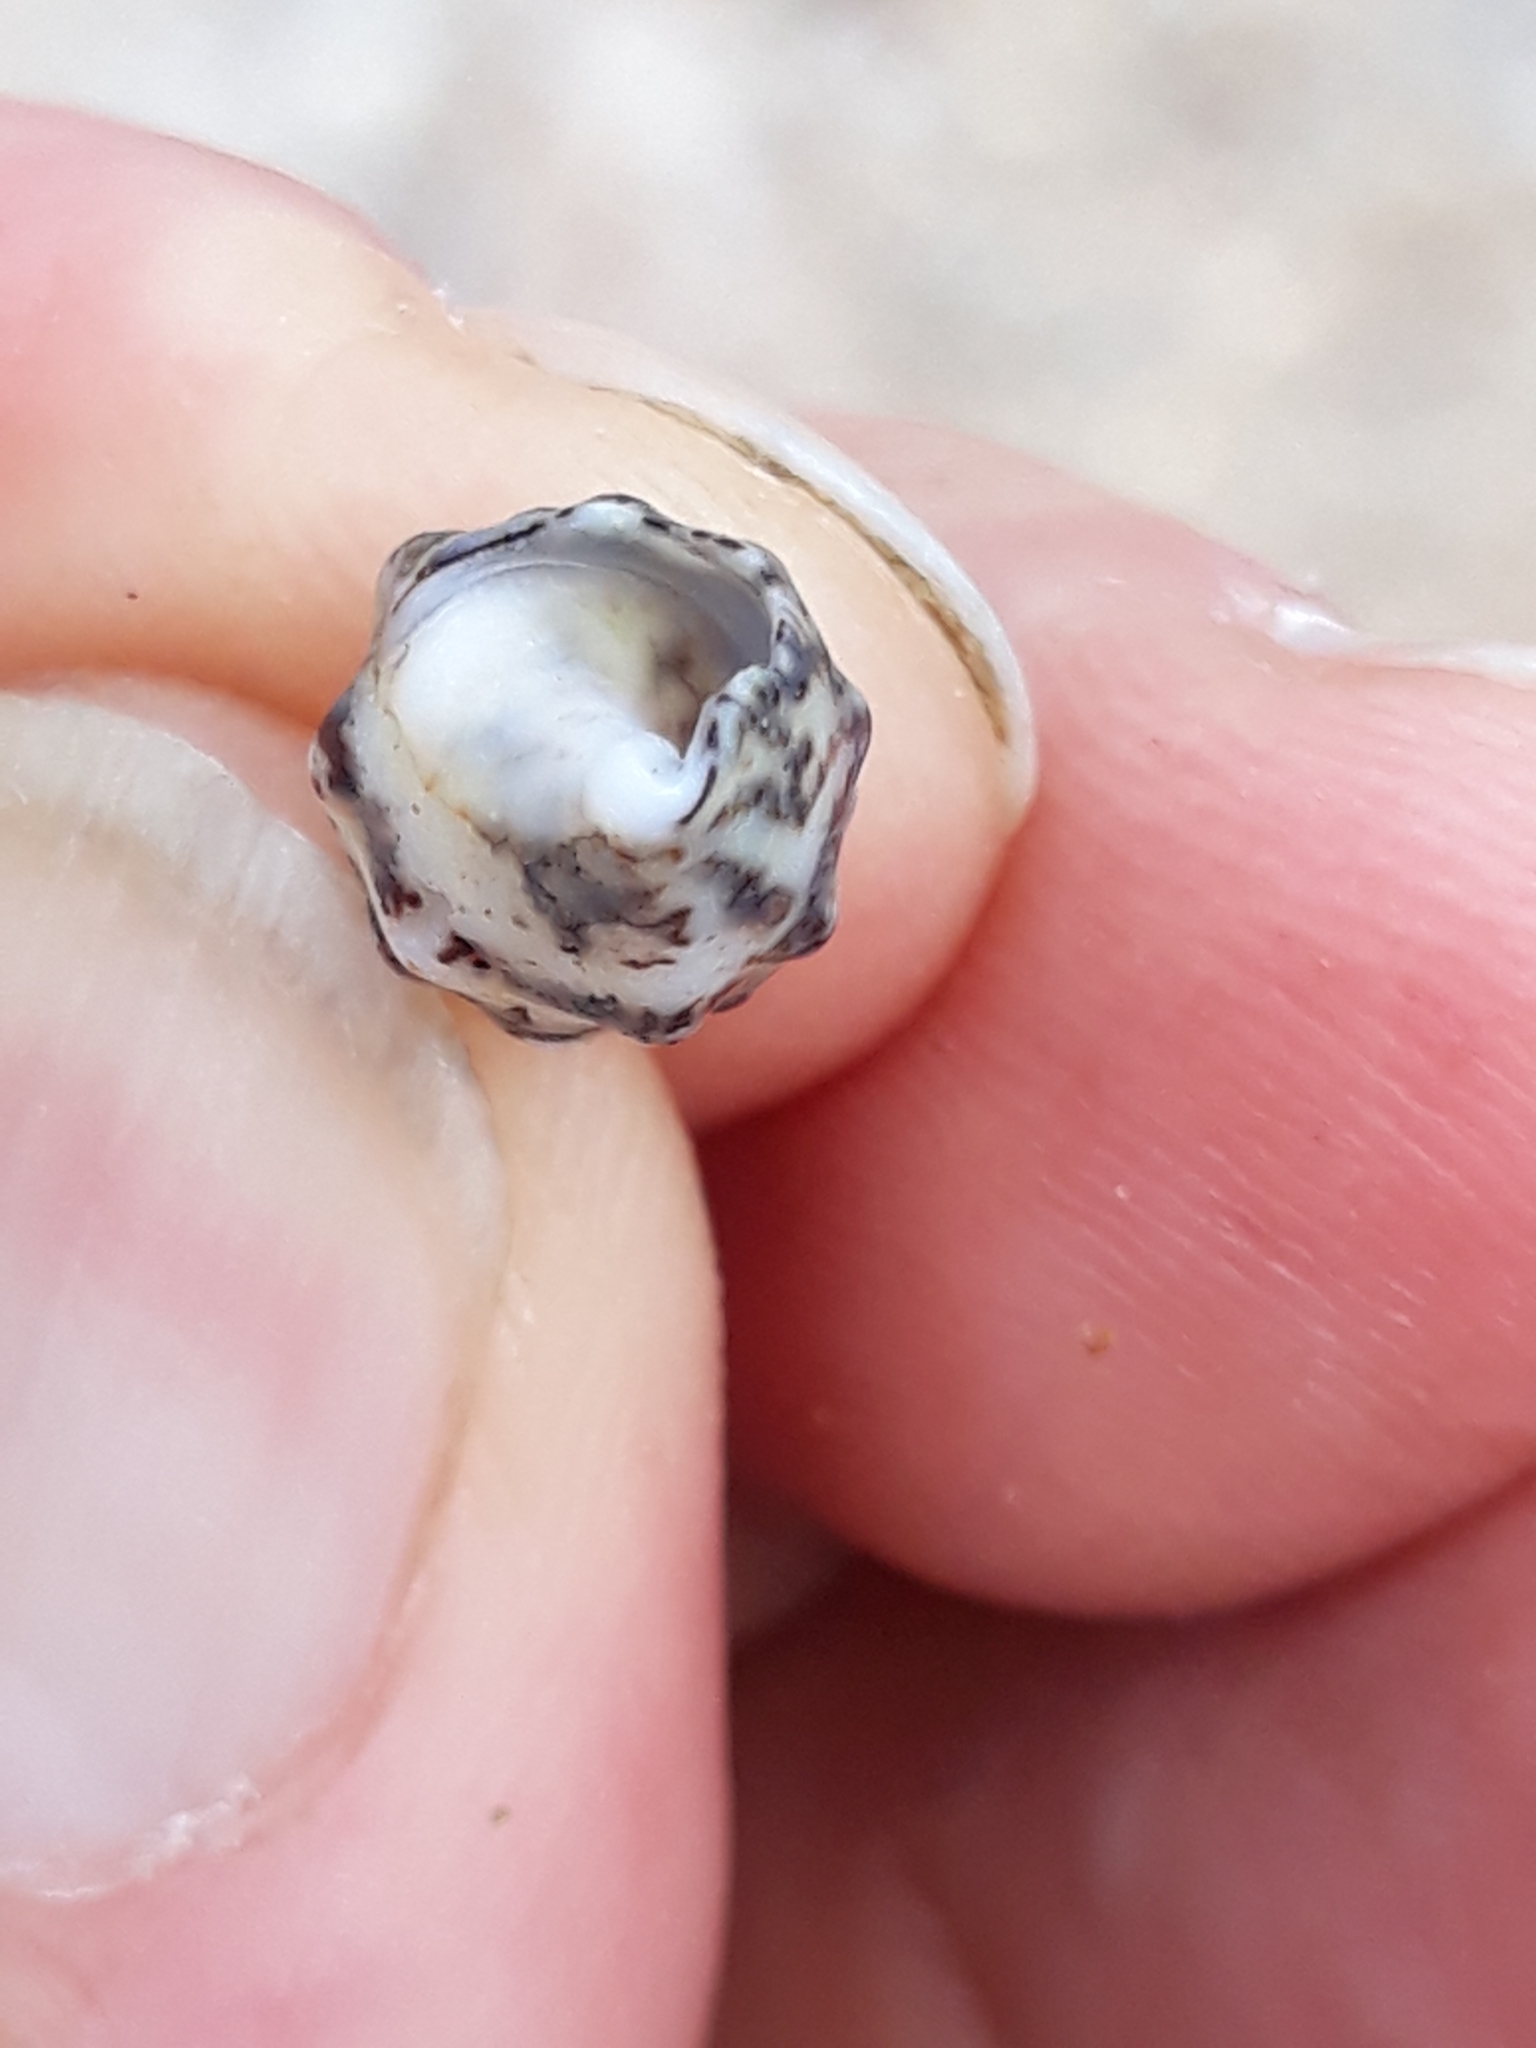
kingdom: Animalia
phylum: Mollusca
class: Gastropoda
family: Cerithiidae
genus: Cerithium
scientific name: Cerithium vulgatum
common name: European cerith
